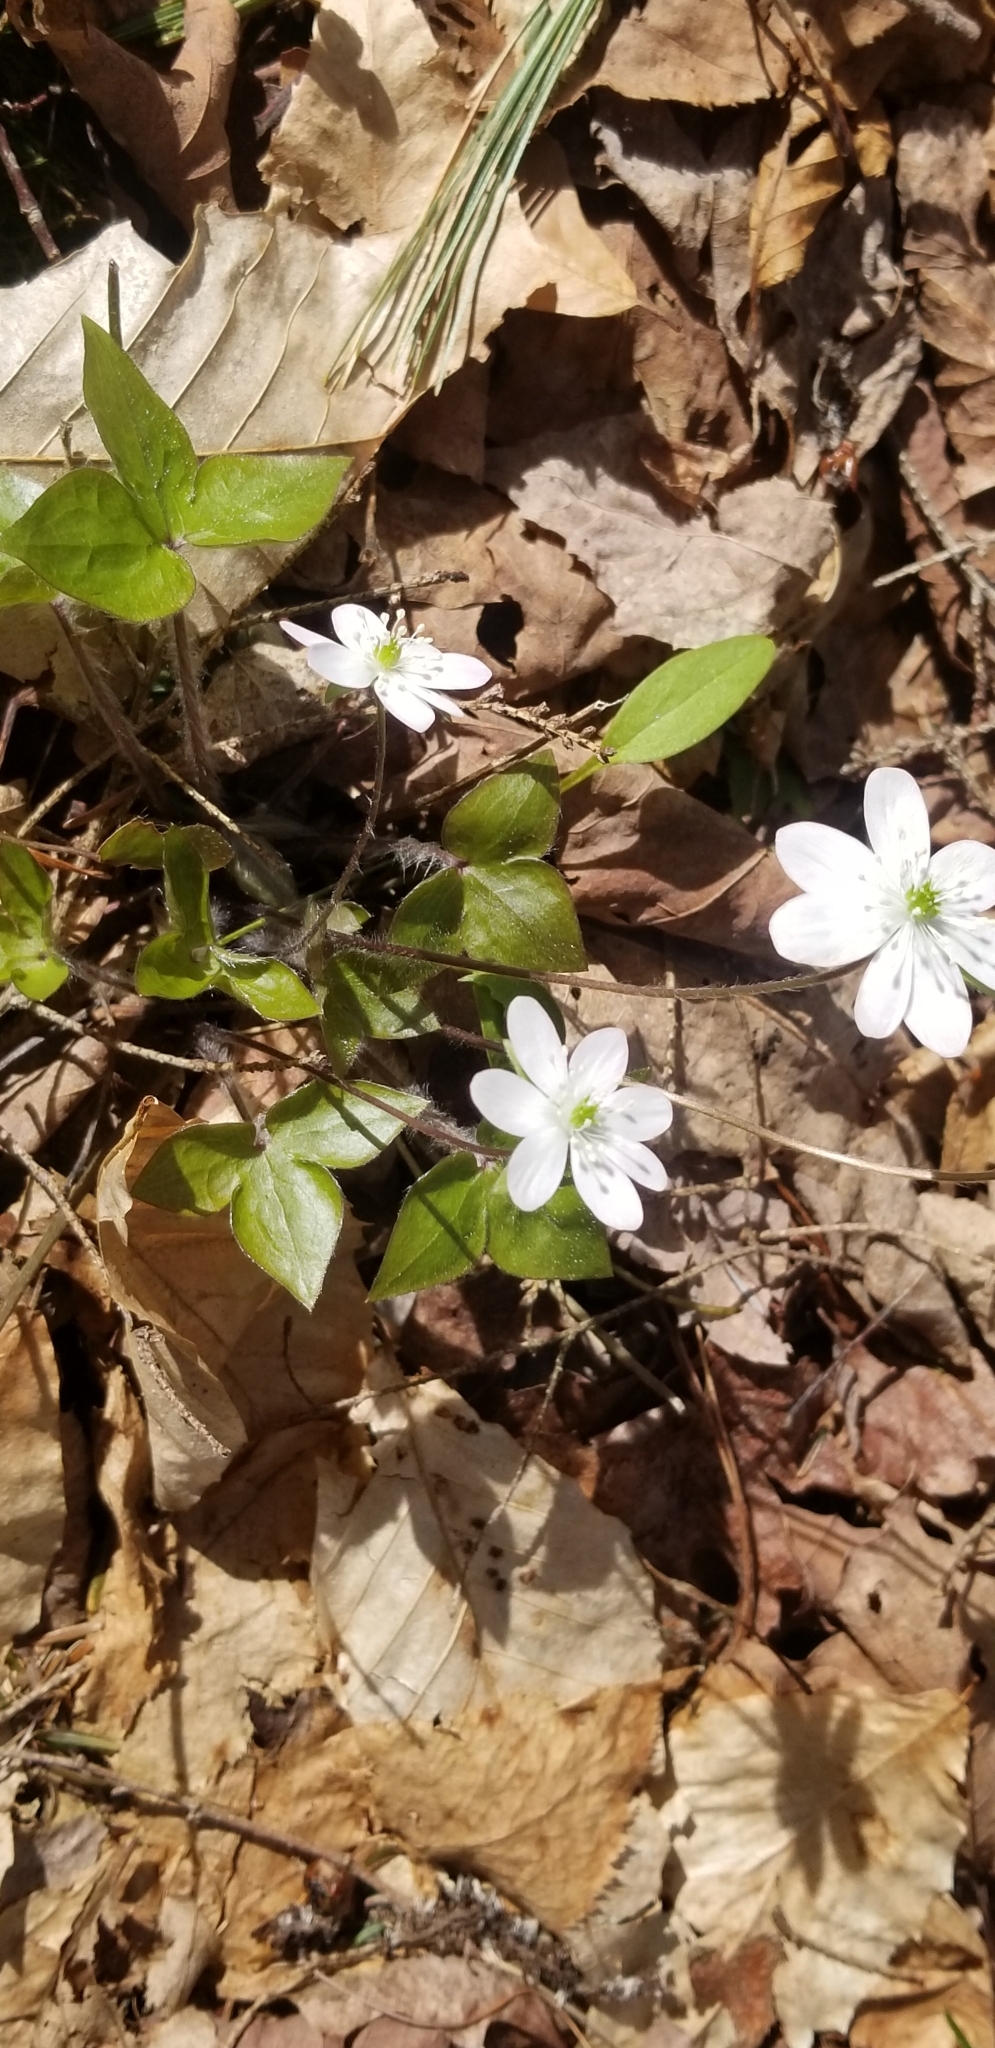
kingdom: Plantae
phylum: Tracheophyta
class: Magnoliopsida
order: Ranunculales
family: Ranunculaceae
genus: Hepatica
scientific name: Hepatica acutiloba
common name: Sharp-lobed hepatica
